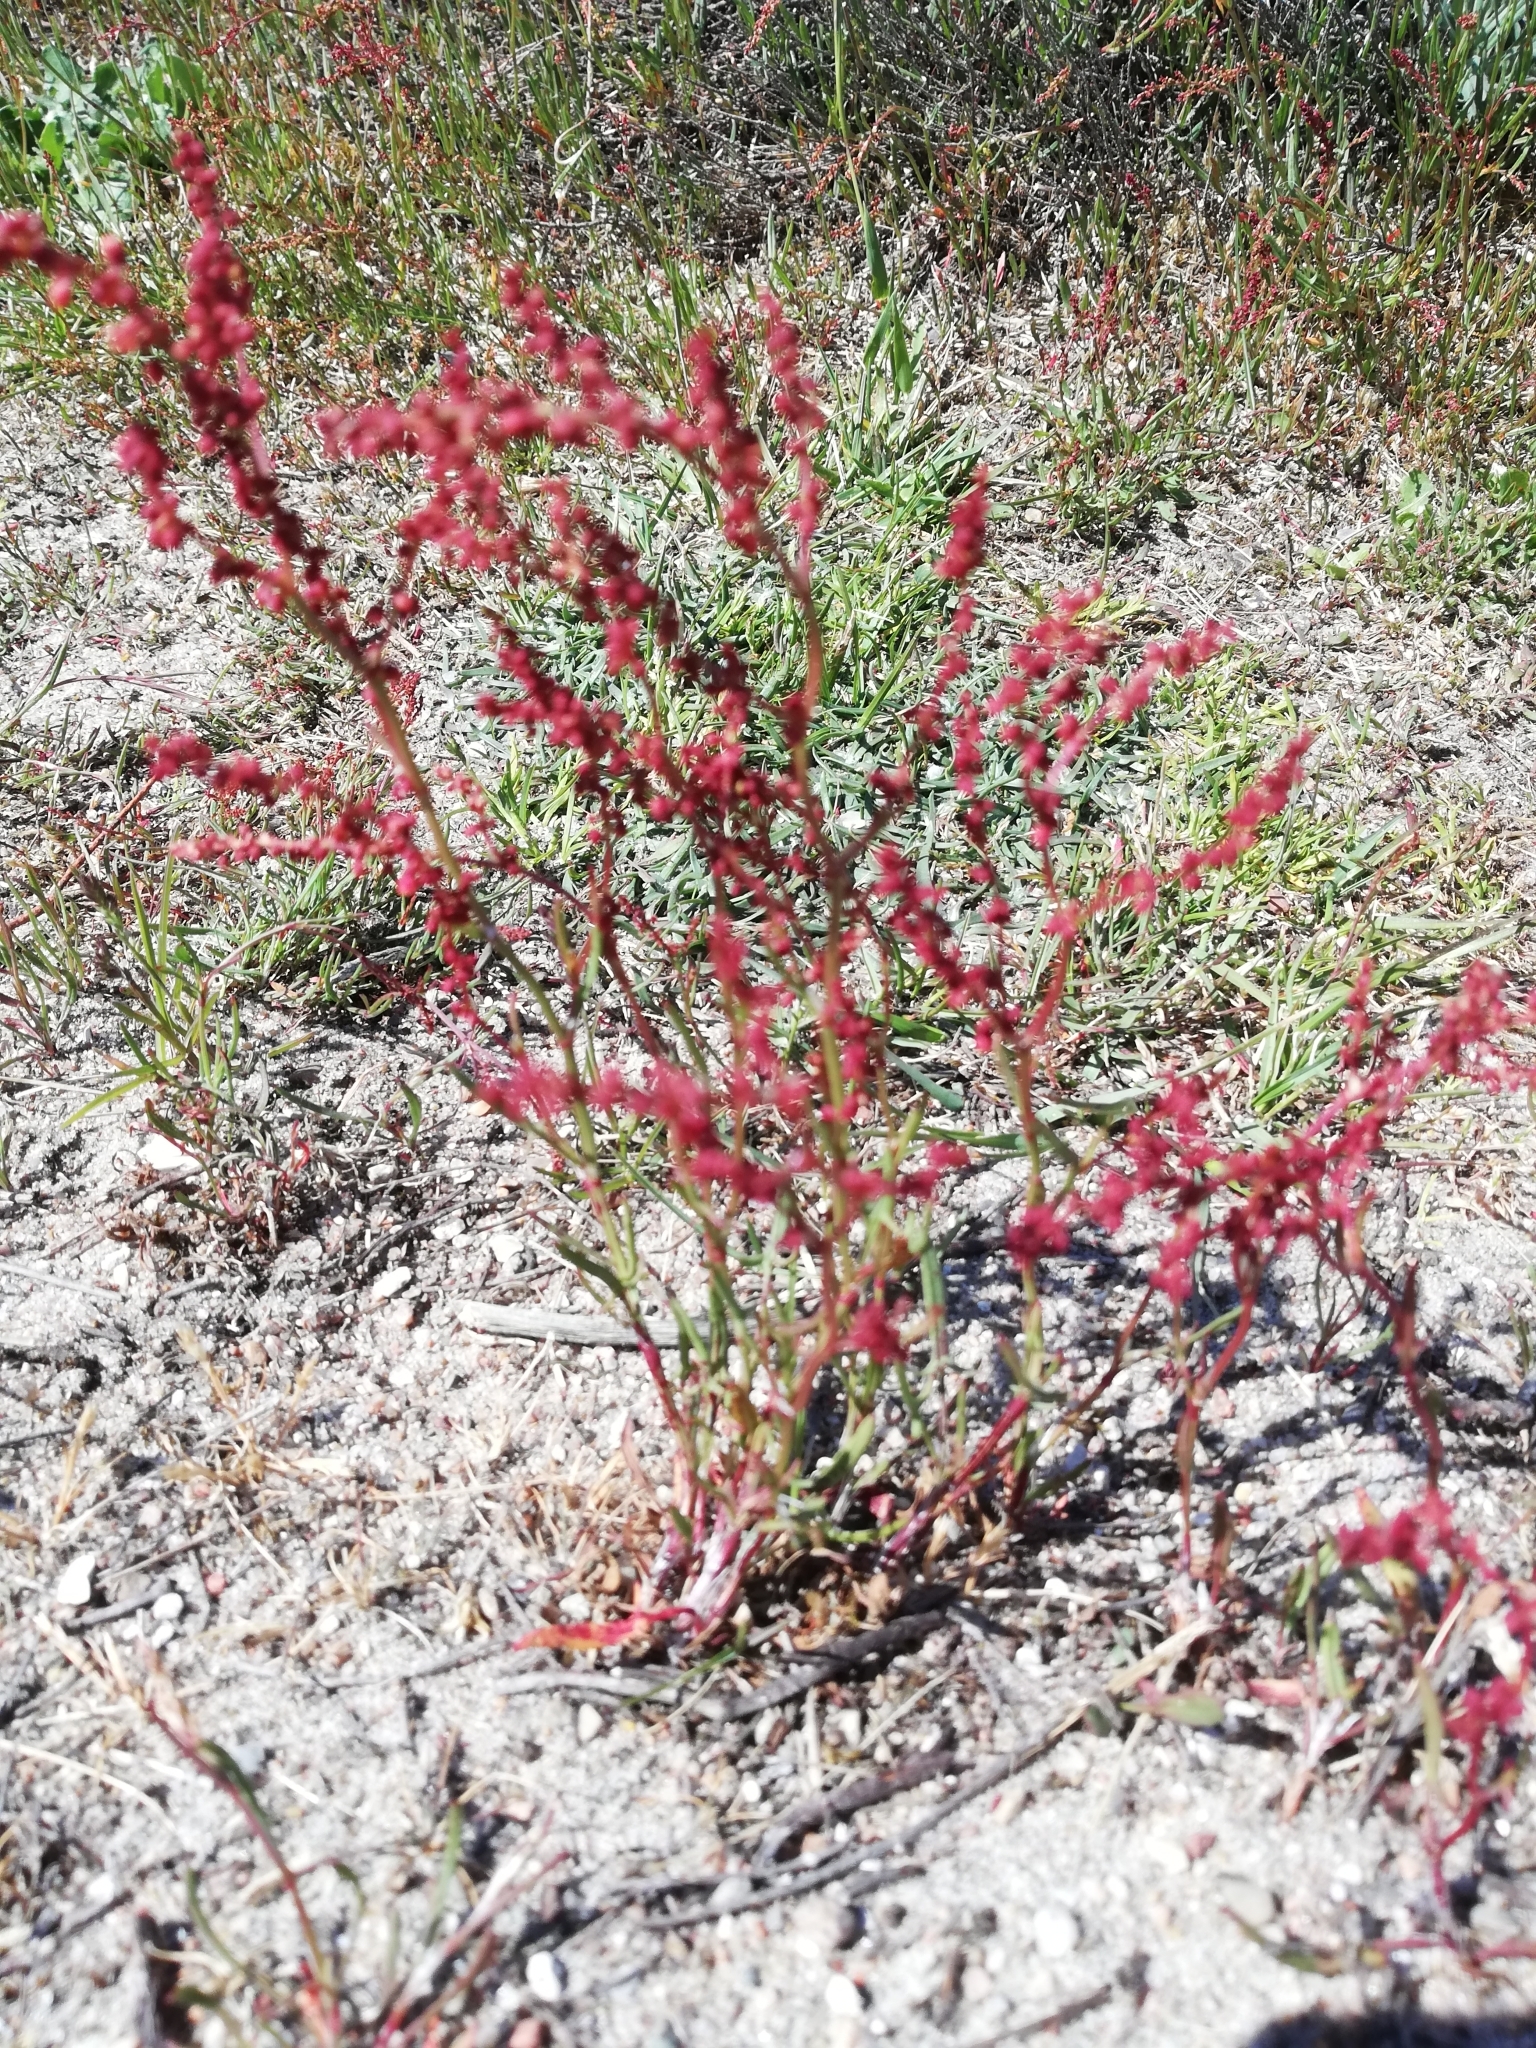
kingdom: Plantae
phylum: Tracheophyta
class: Magnoliopsida
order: Caryophyllales
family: Polygonaceae
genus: Rumex
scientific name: Rumex acetosella
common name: Common sheep sorrel
